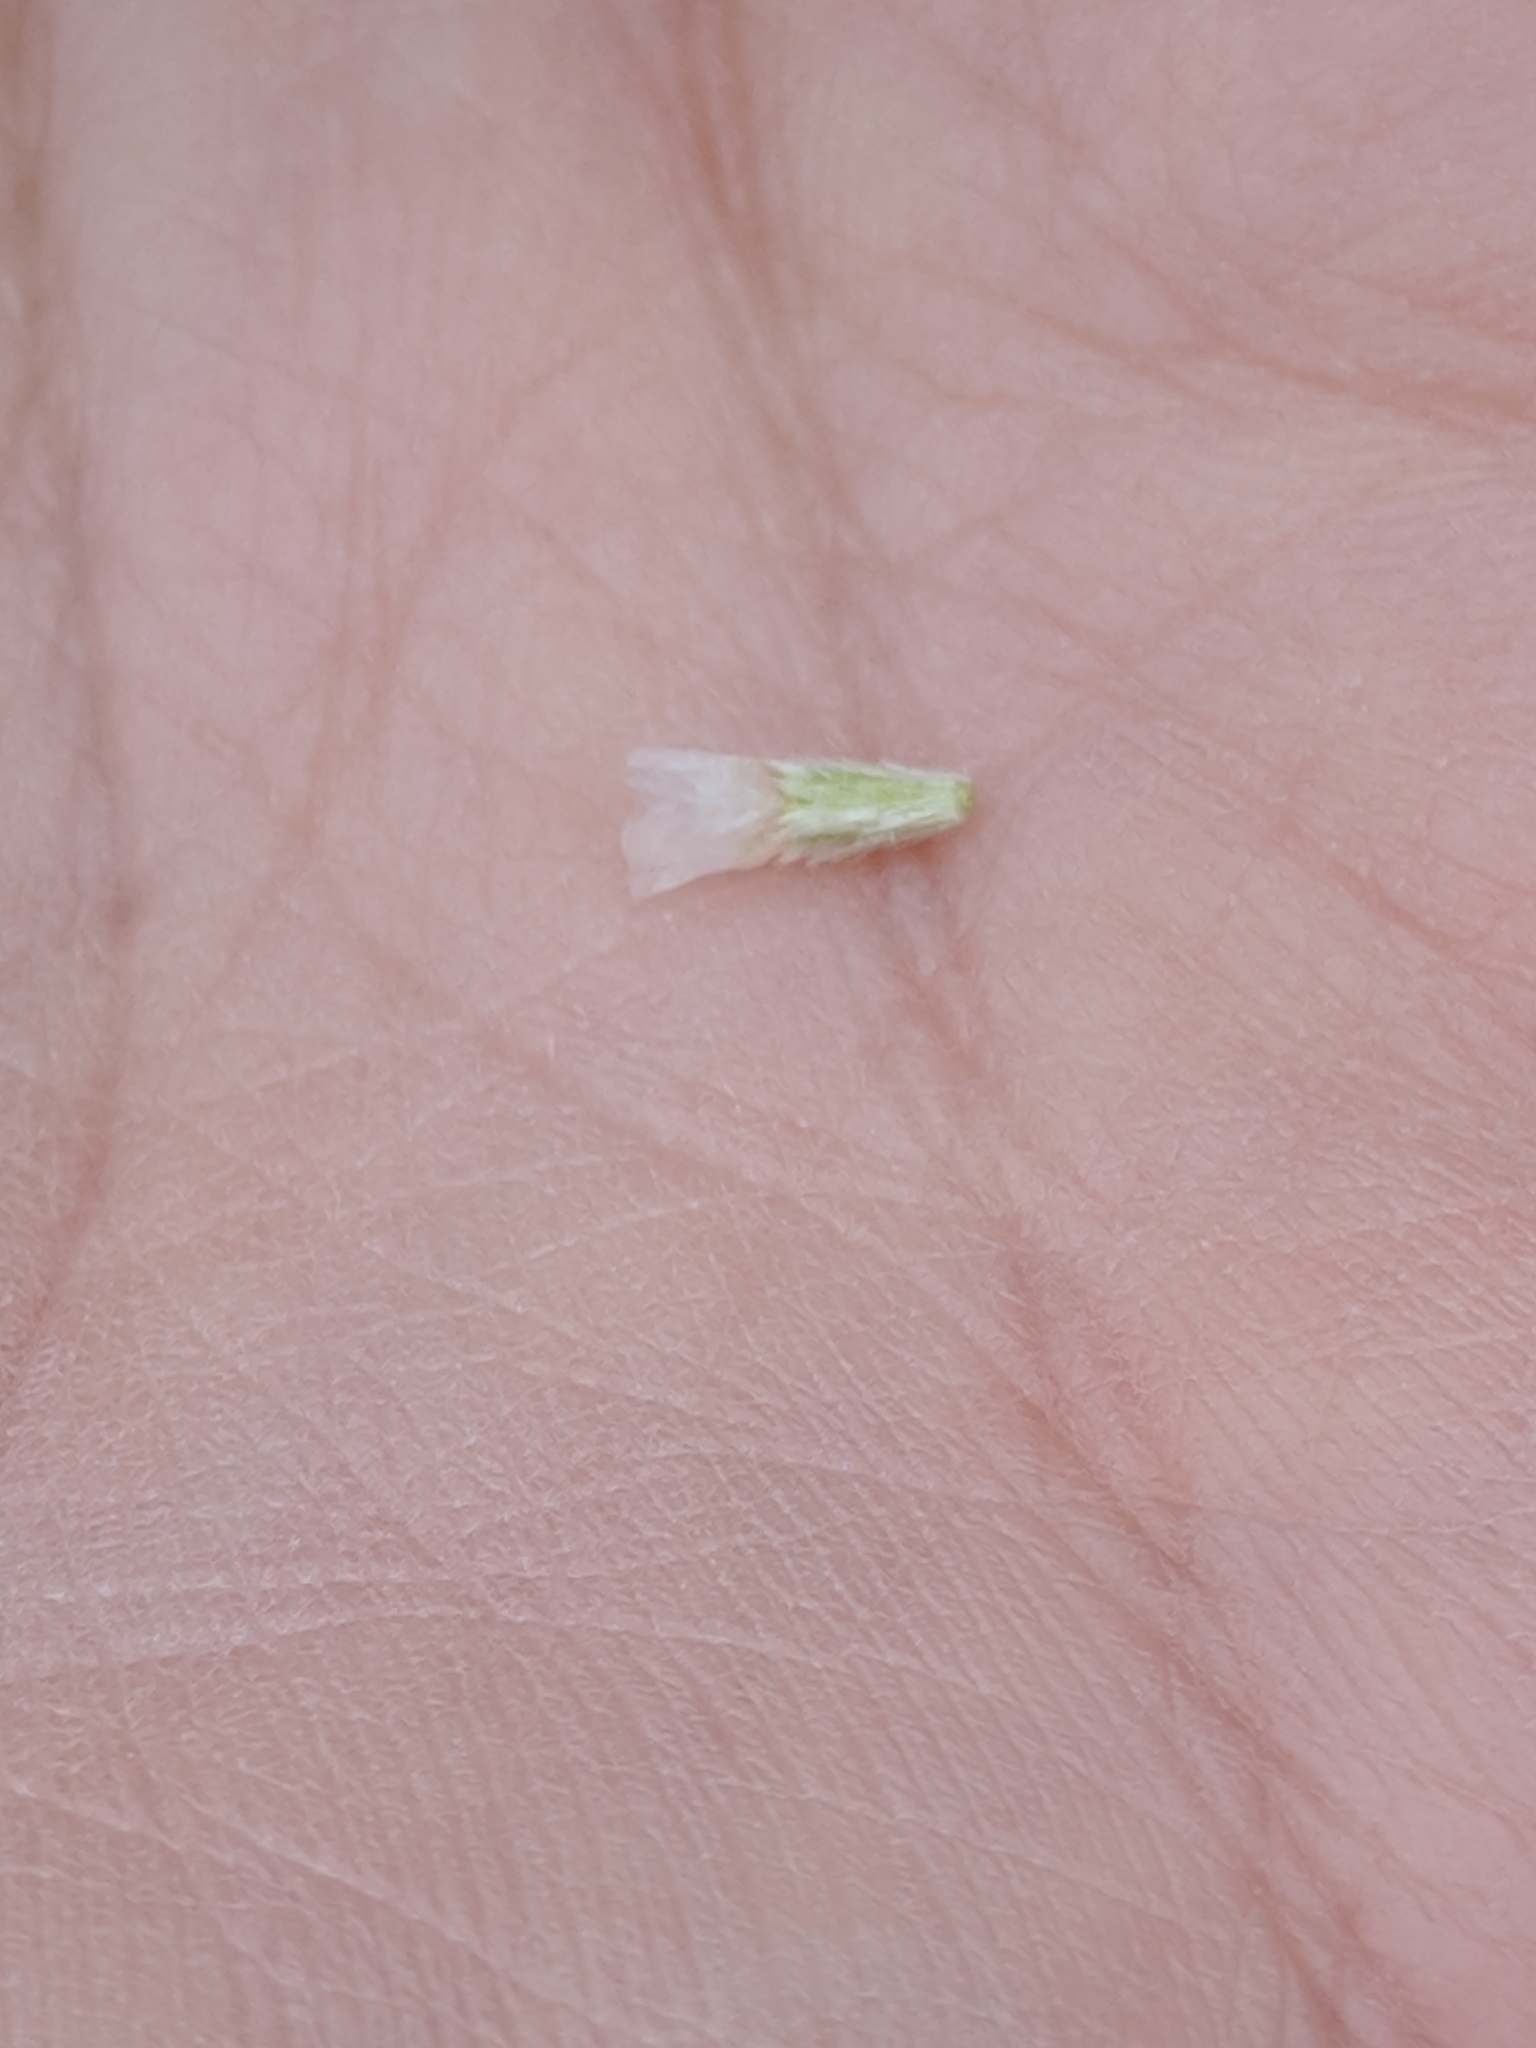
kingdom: Plantae
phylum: Tracheophyta
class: Magnoliopsida
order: Asterales
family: Asteraceae
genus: Amblyolepis
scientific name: Amblyolepis setigera
